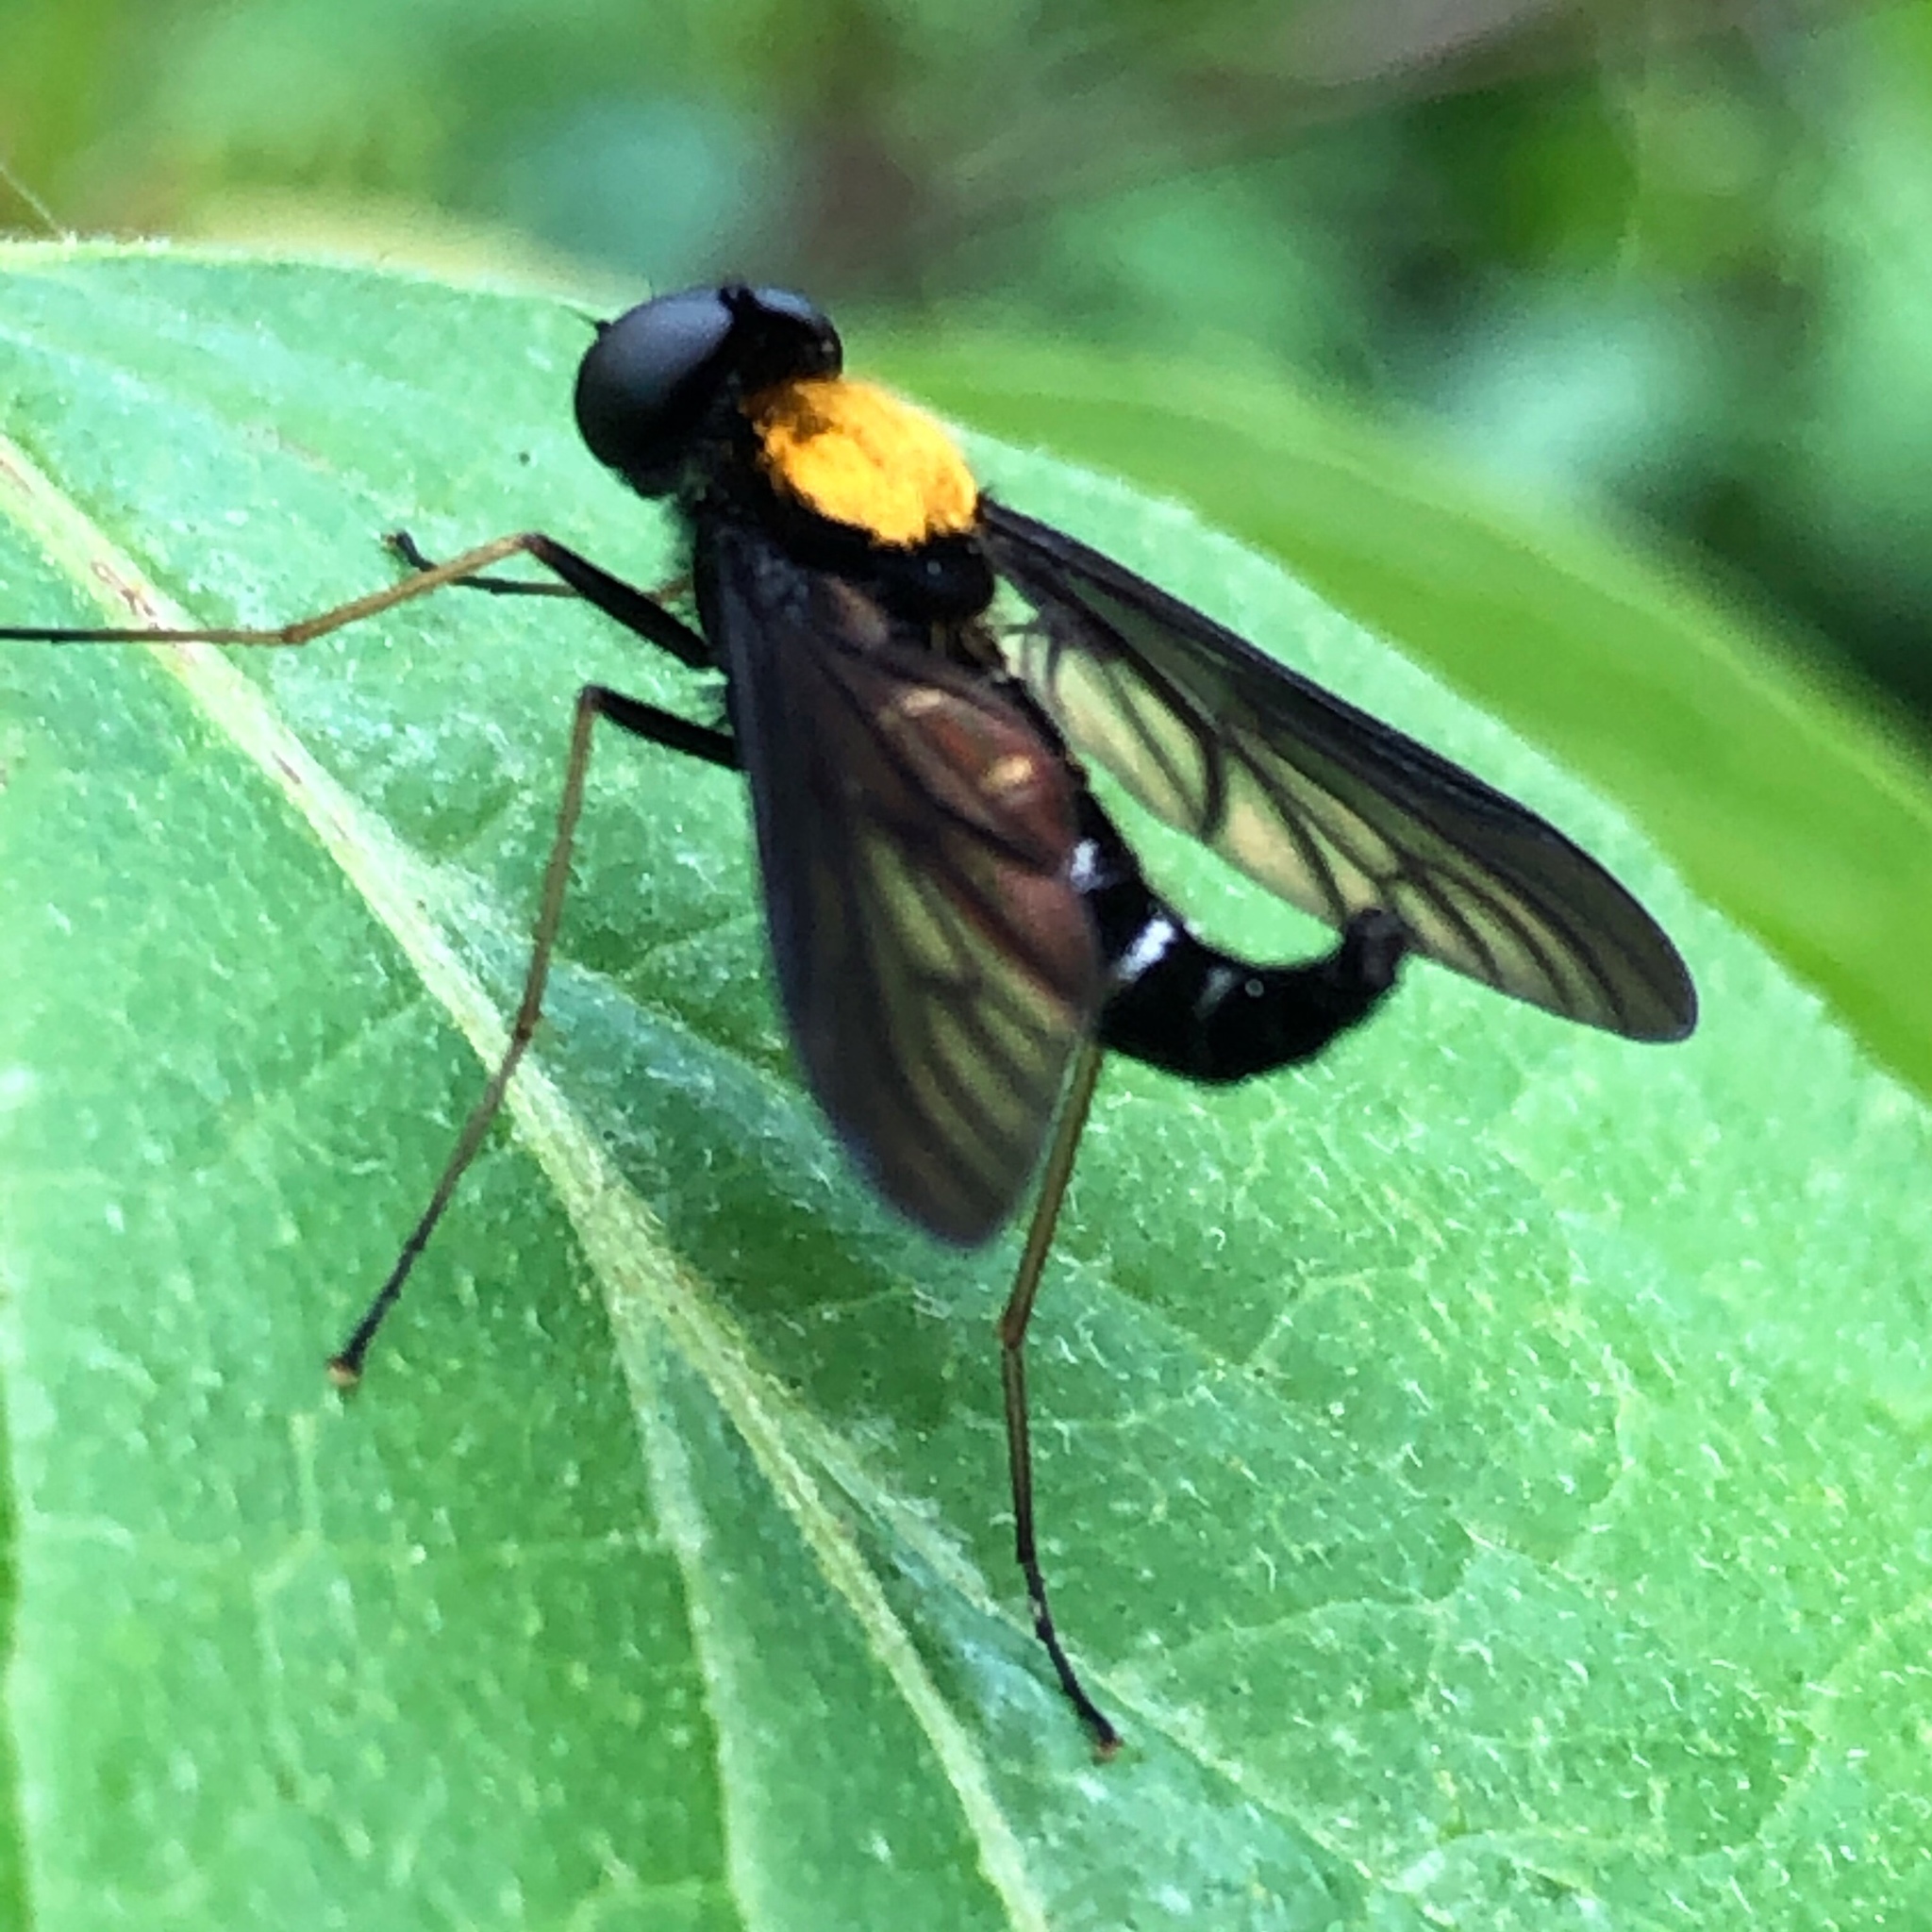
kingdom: Animalia
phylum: Arthropoda
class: Insecta
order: Diptera
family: Rhagionidae
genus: Chrysopilus
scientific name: Chrysopilus thoracicus
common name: Golden-backed snipe fly
